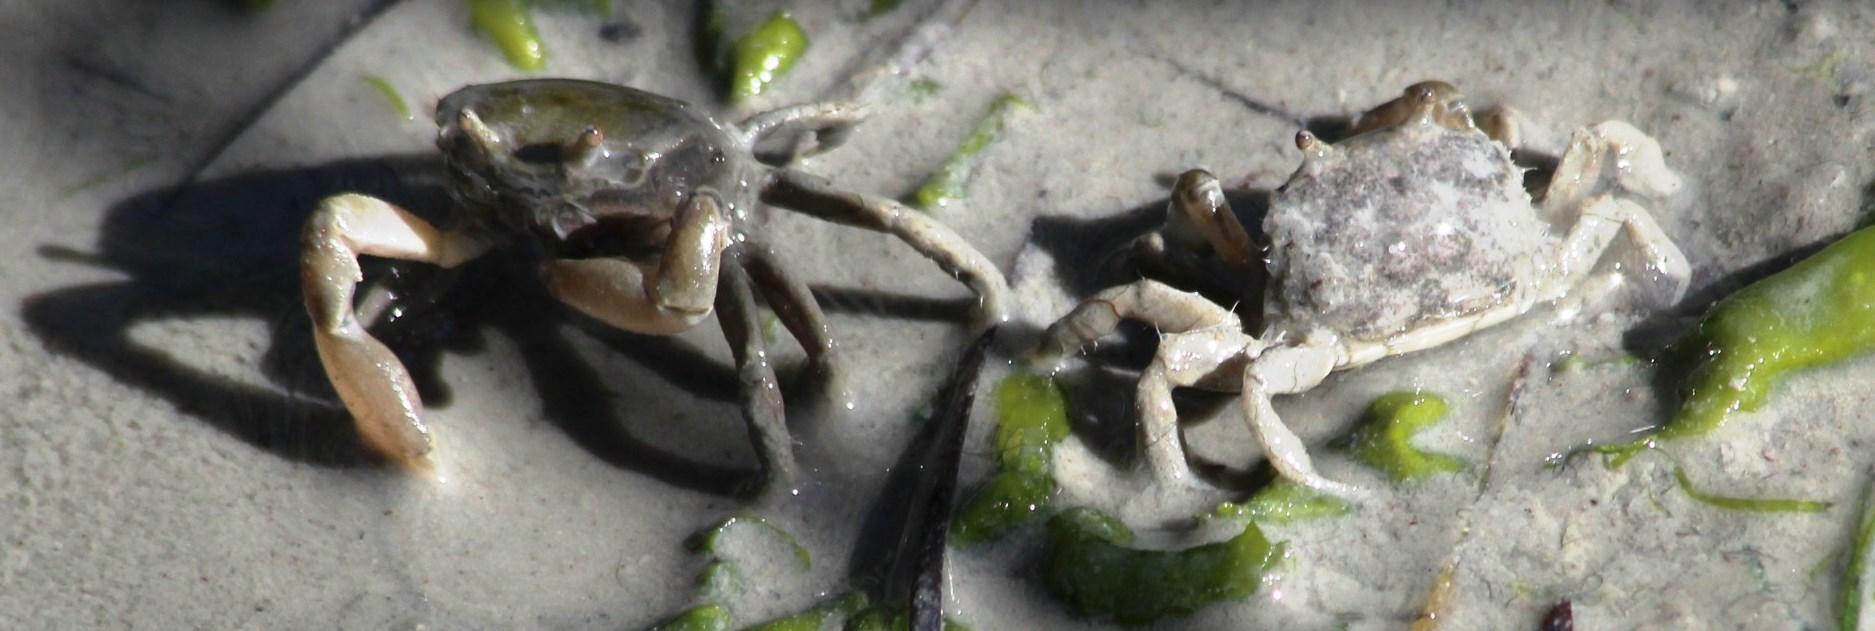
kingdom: Animalia
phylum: Arthropoda
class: Malacostraca
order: Decapoda
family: Camptandriidae
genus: Danielella
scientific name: Danielella edwardsii
